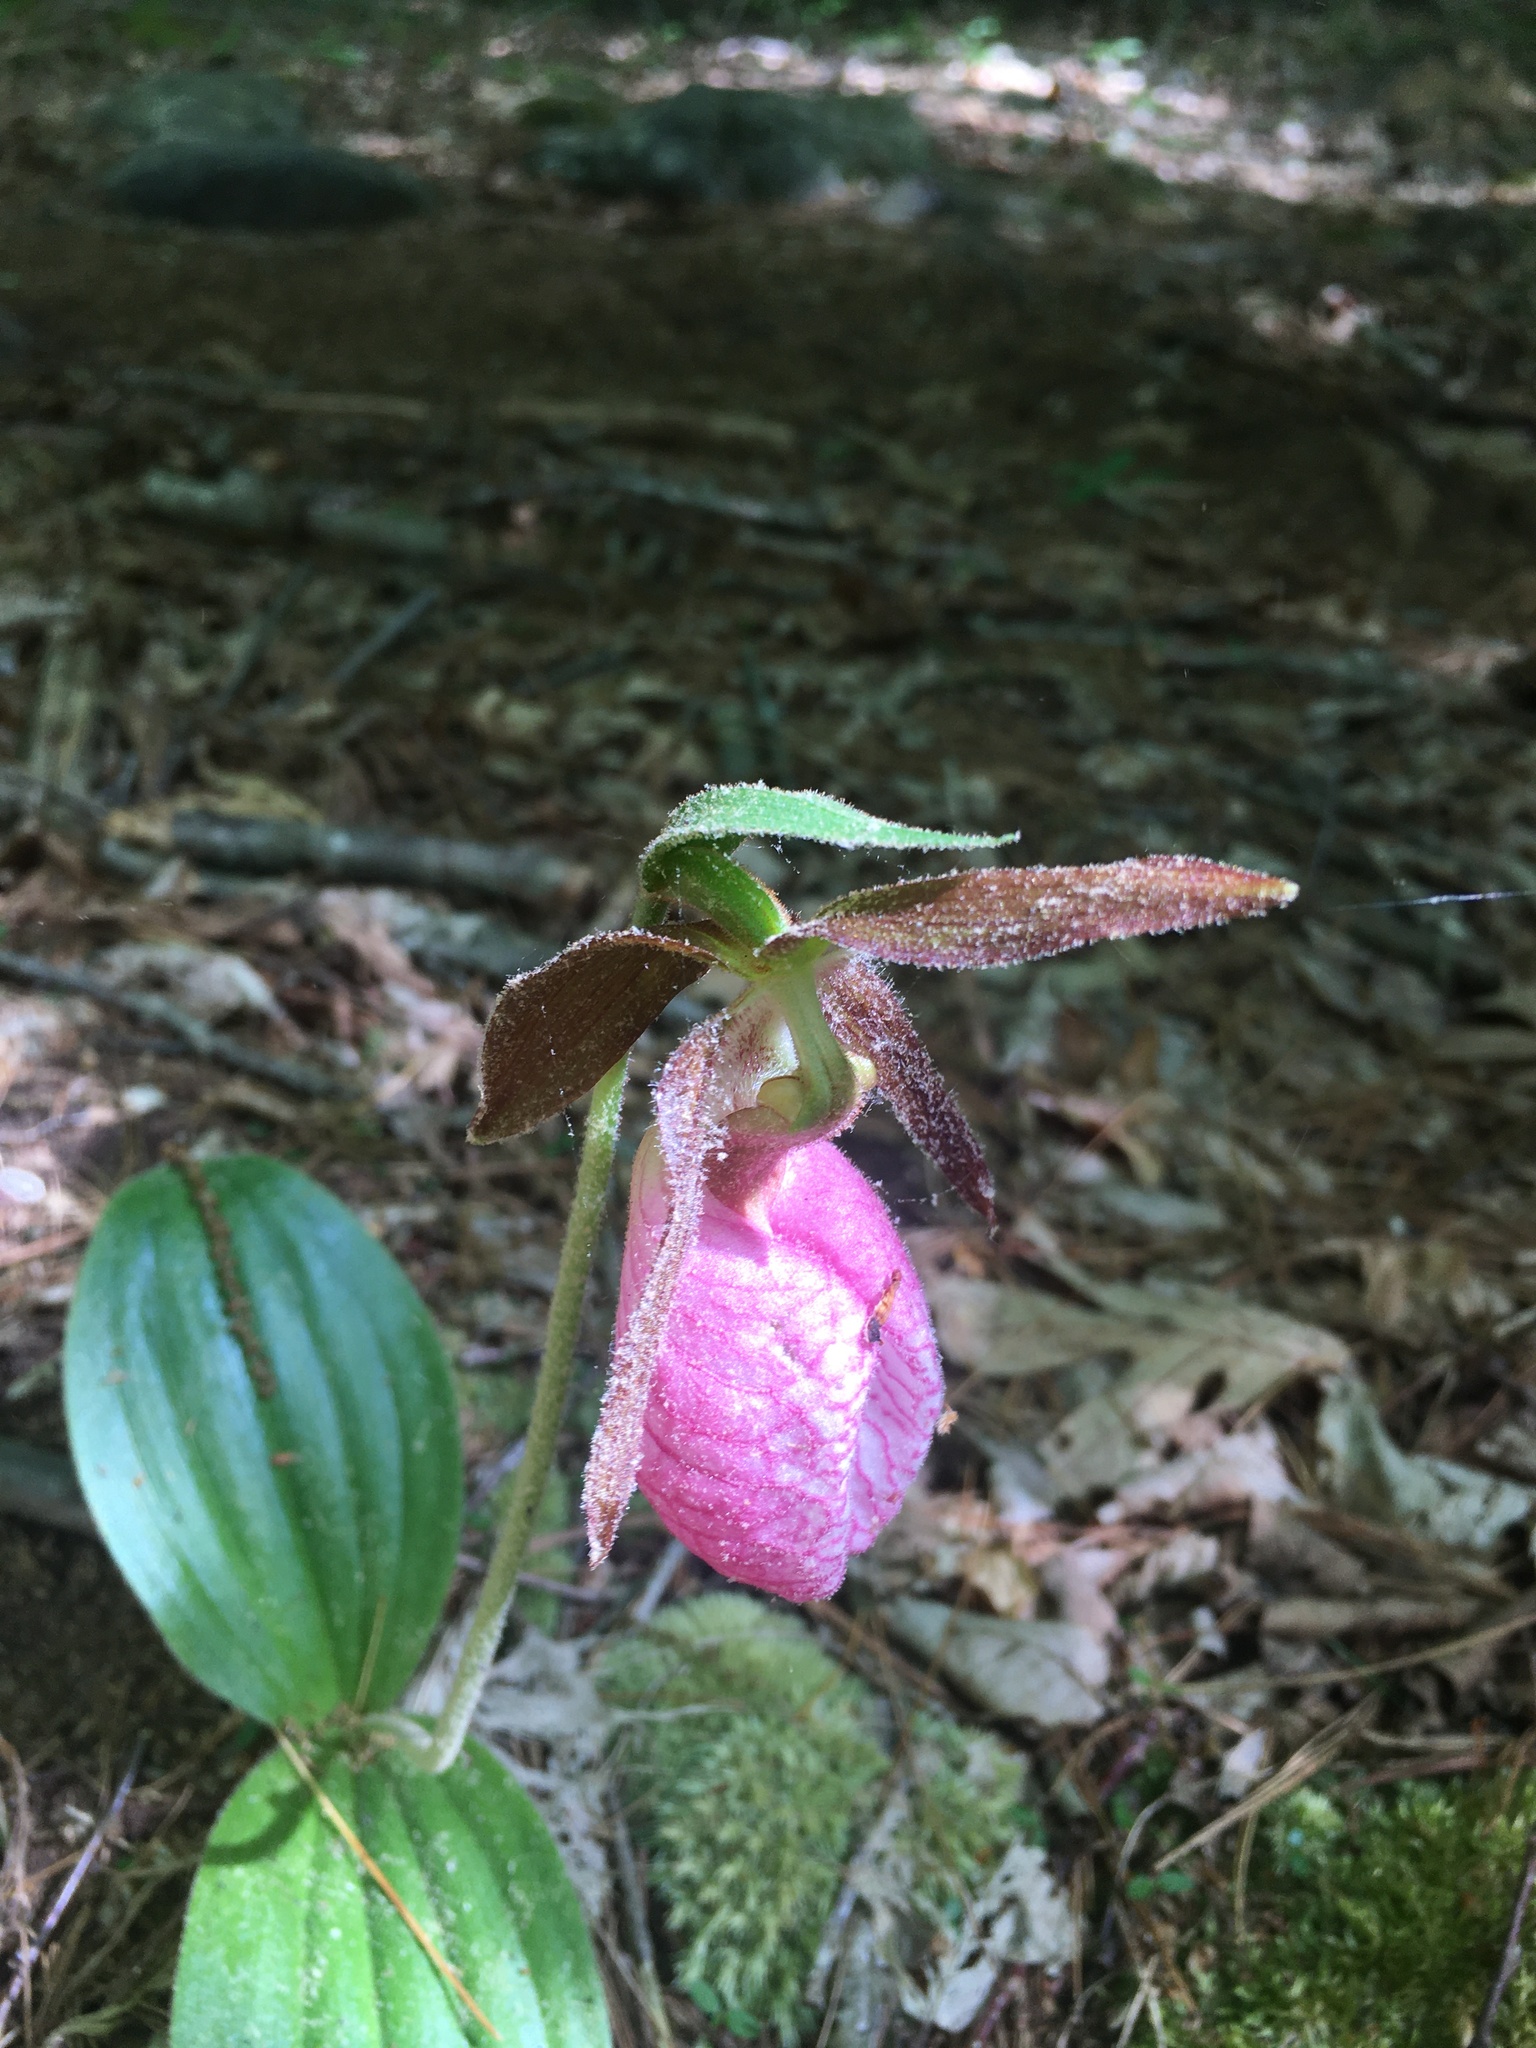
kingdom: Plantae
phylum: Tracheophyta
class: Liliopsida
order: Asparagales
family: Orchidaceae
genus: Cypripedium
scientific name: Cypripedium acaule
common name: Pink lady's-slipper
